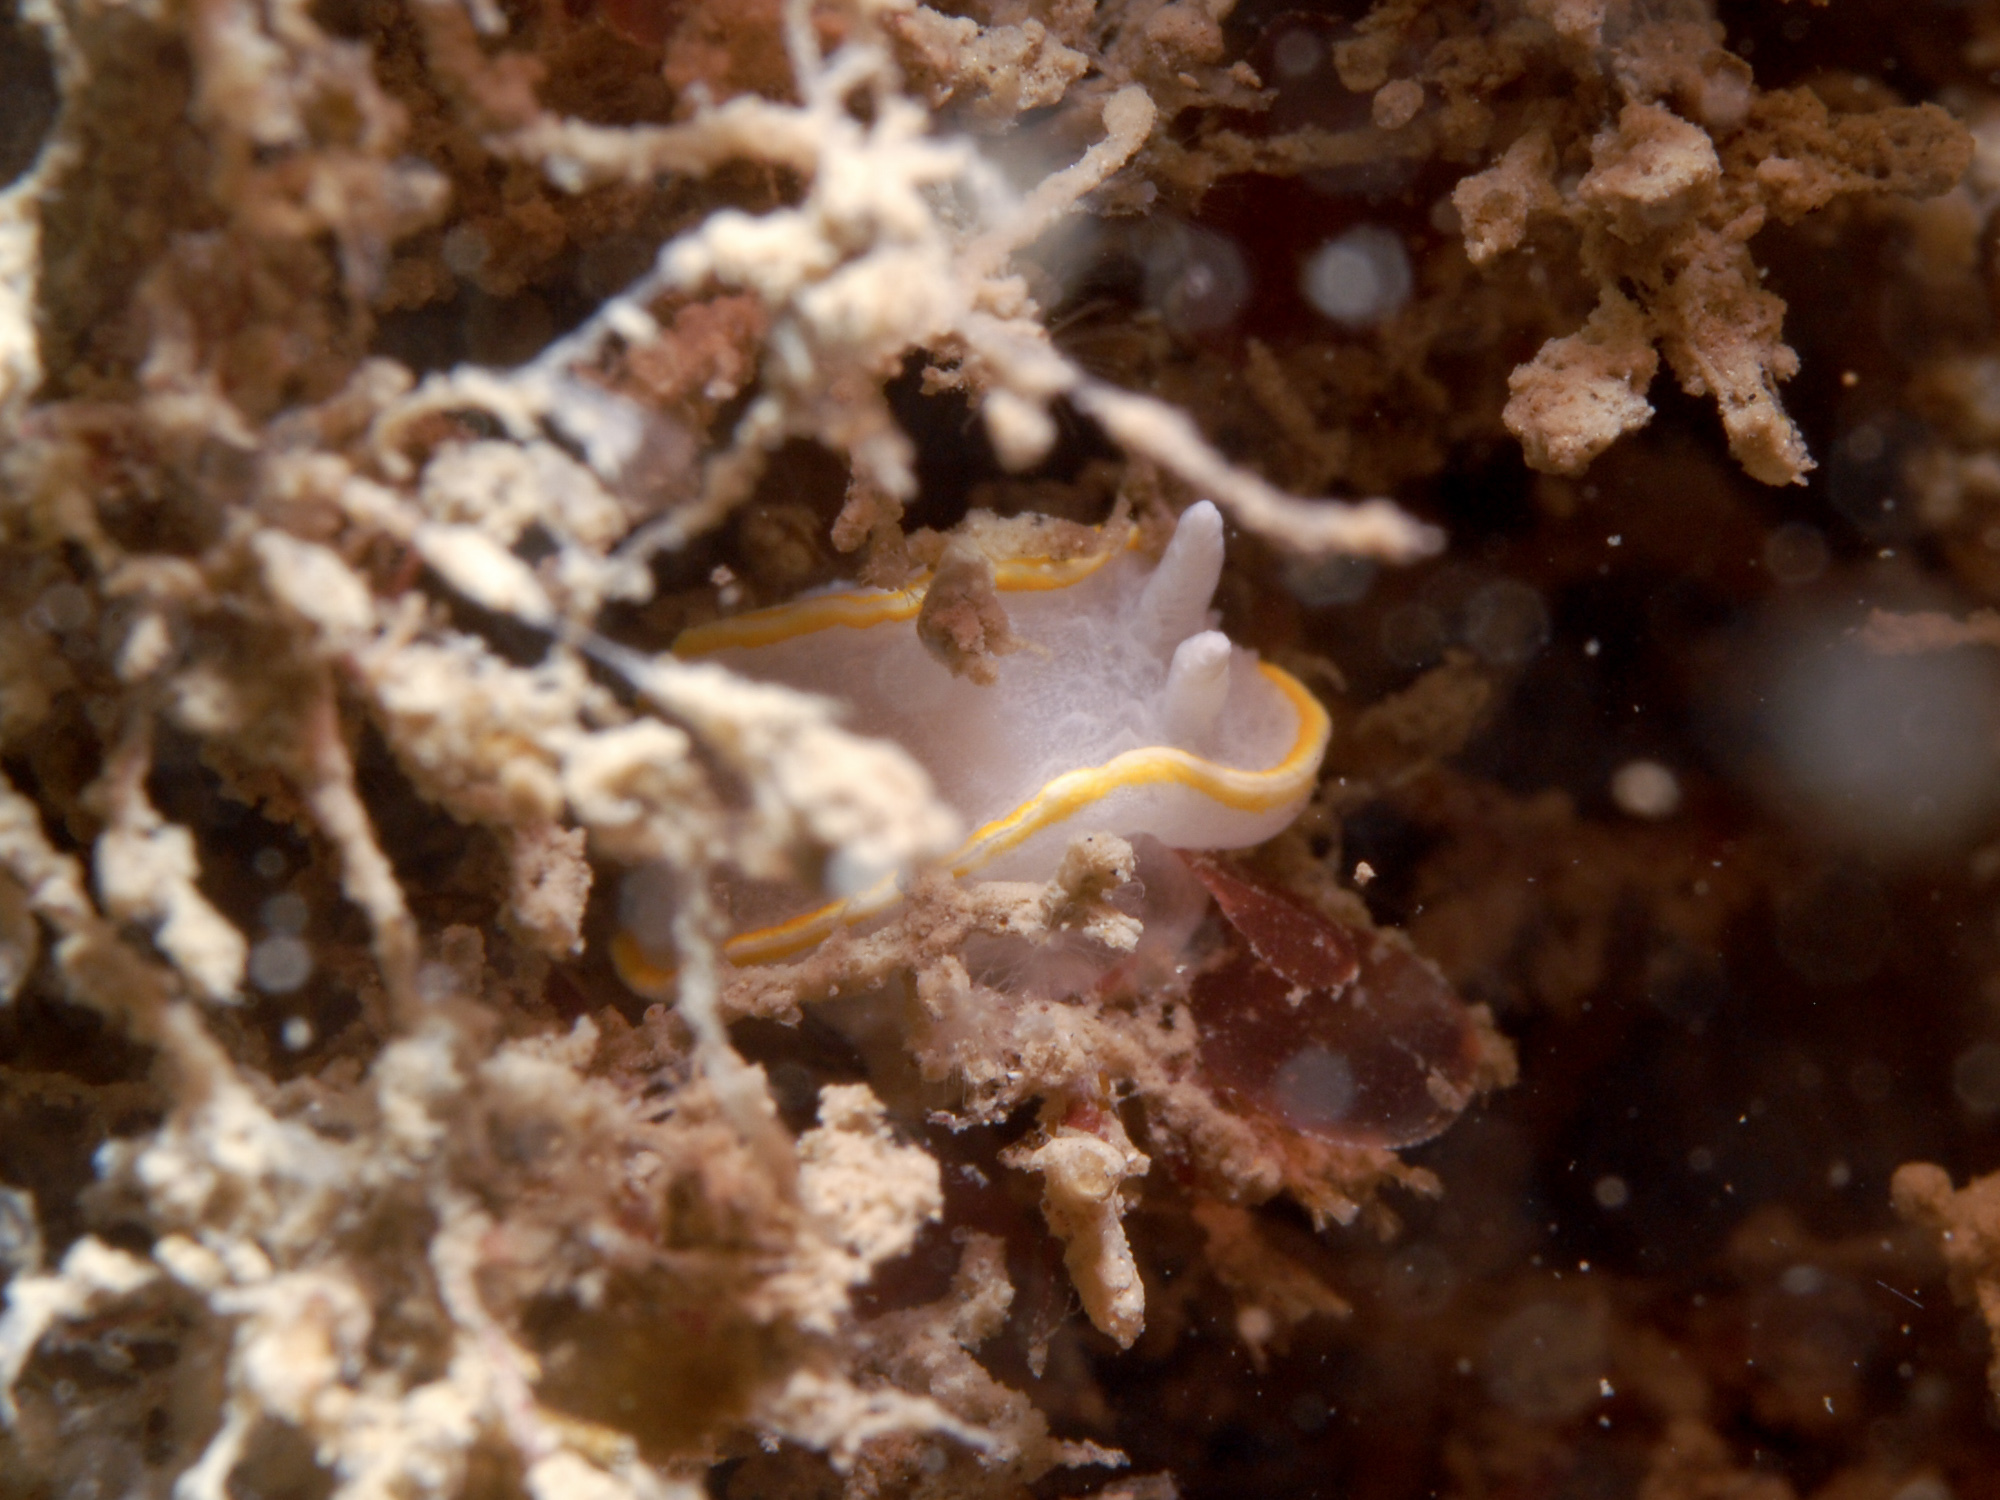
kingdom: Animalia
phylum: Mollusca
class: Gastropoda
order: Nudibranchia
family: Calycidorididae
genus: Diaphorodoris
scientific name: Diaphorodoris alba
